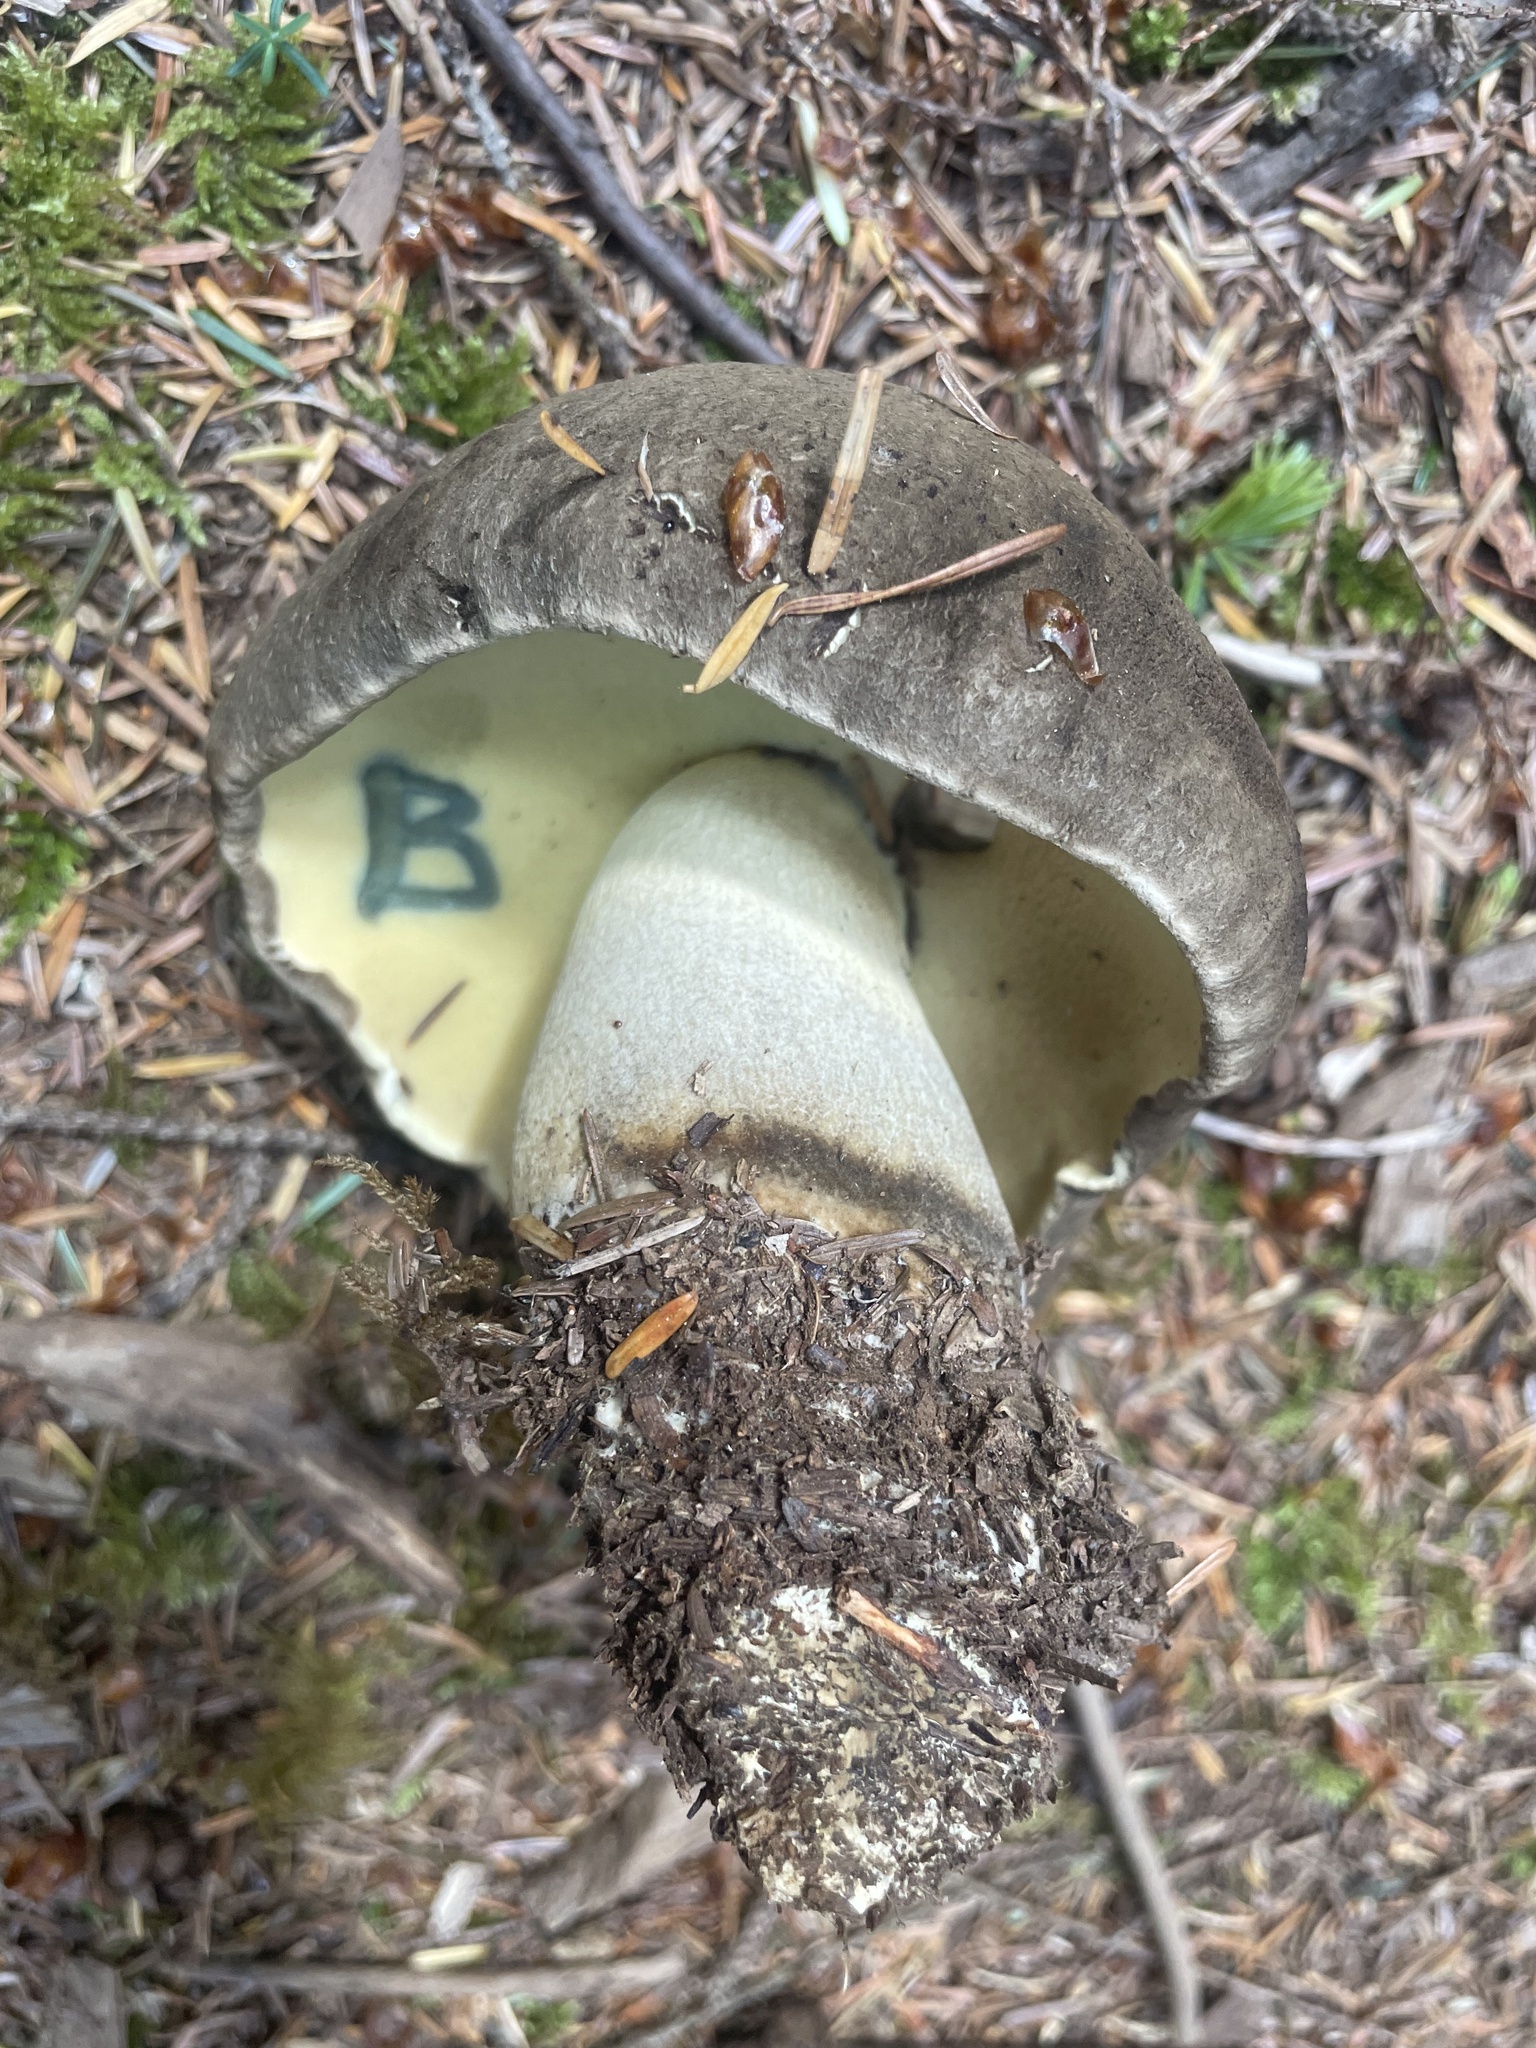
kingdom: Fungi
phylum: Basidiomycota
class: Agaricomycetes
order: Boletales
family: Boletaceae
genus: Caloboletus
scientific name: Caloboletus conifericola
